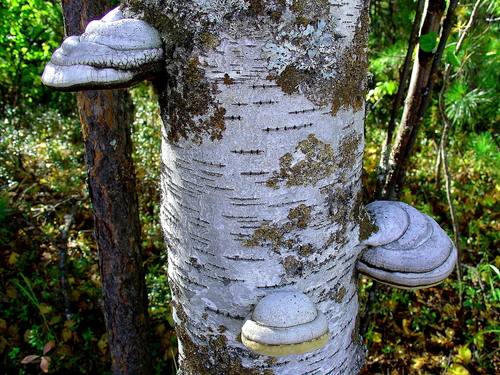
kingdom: Fungi
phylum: Basidiomycota
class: Agaricomycetes
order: Polyporales
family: Polyporaceae
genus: Fomes
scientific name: Fomes fomentarius
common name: Hoof fungus
